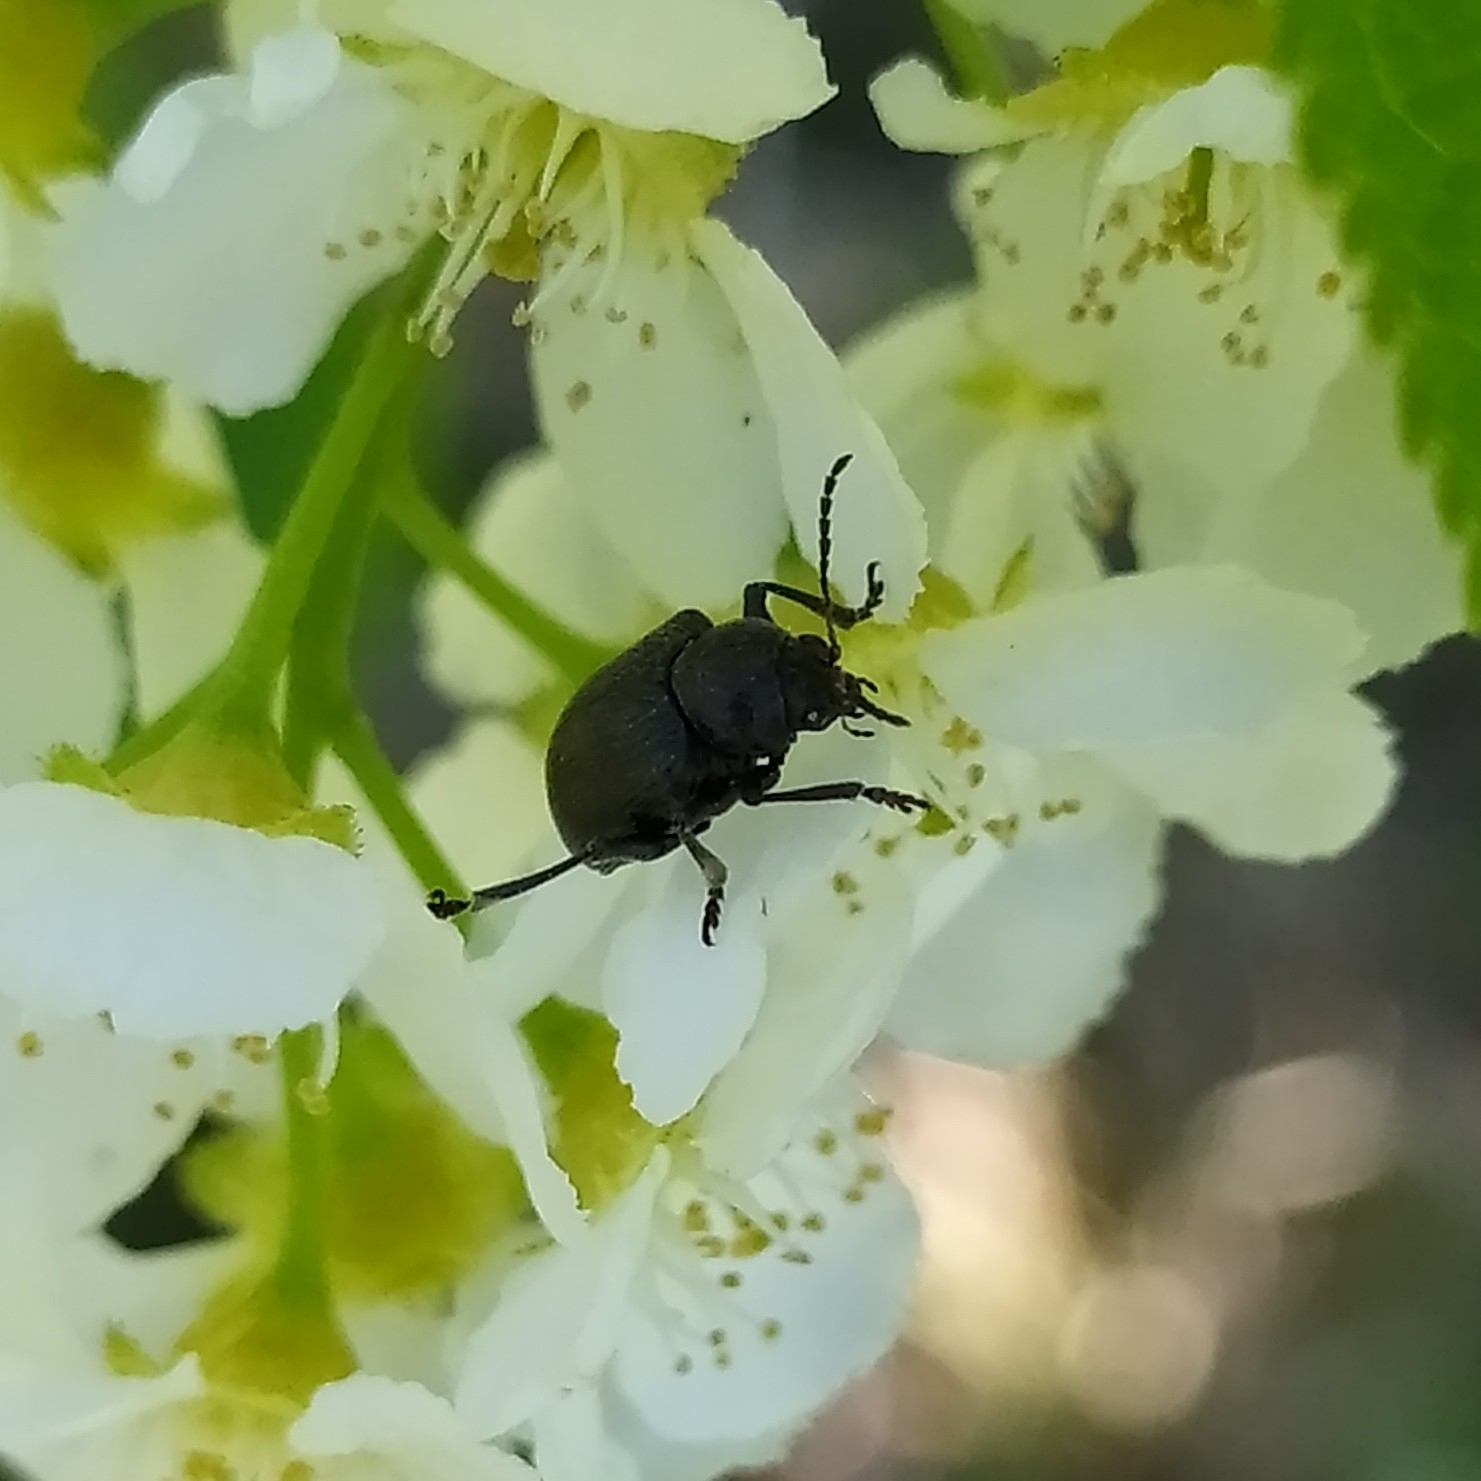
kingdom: Animalia
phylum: Arthropoda
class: Insecta
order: Coleoptera
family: Chrysomelidae
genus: Bromius
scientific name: Bromius obscurus
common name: Western grape rootworm
